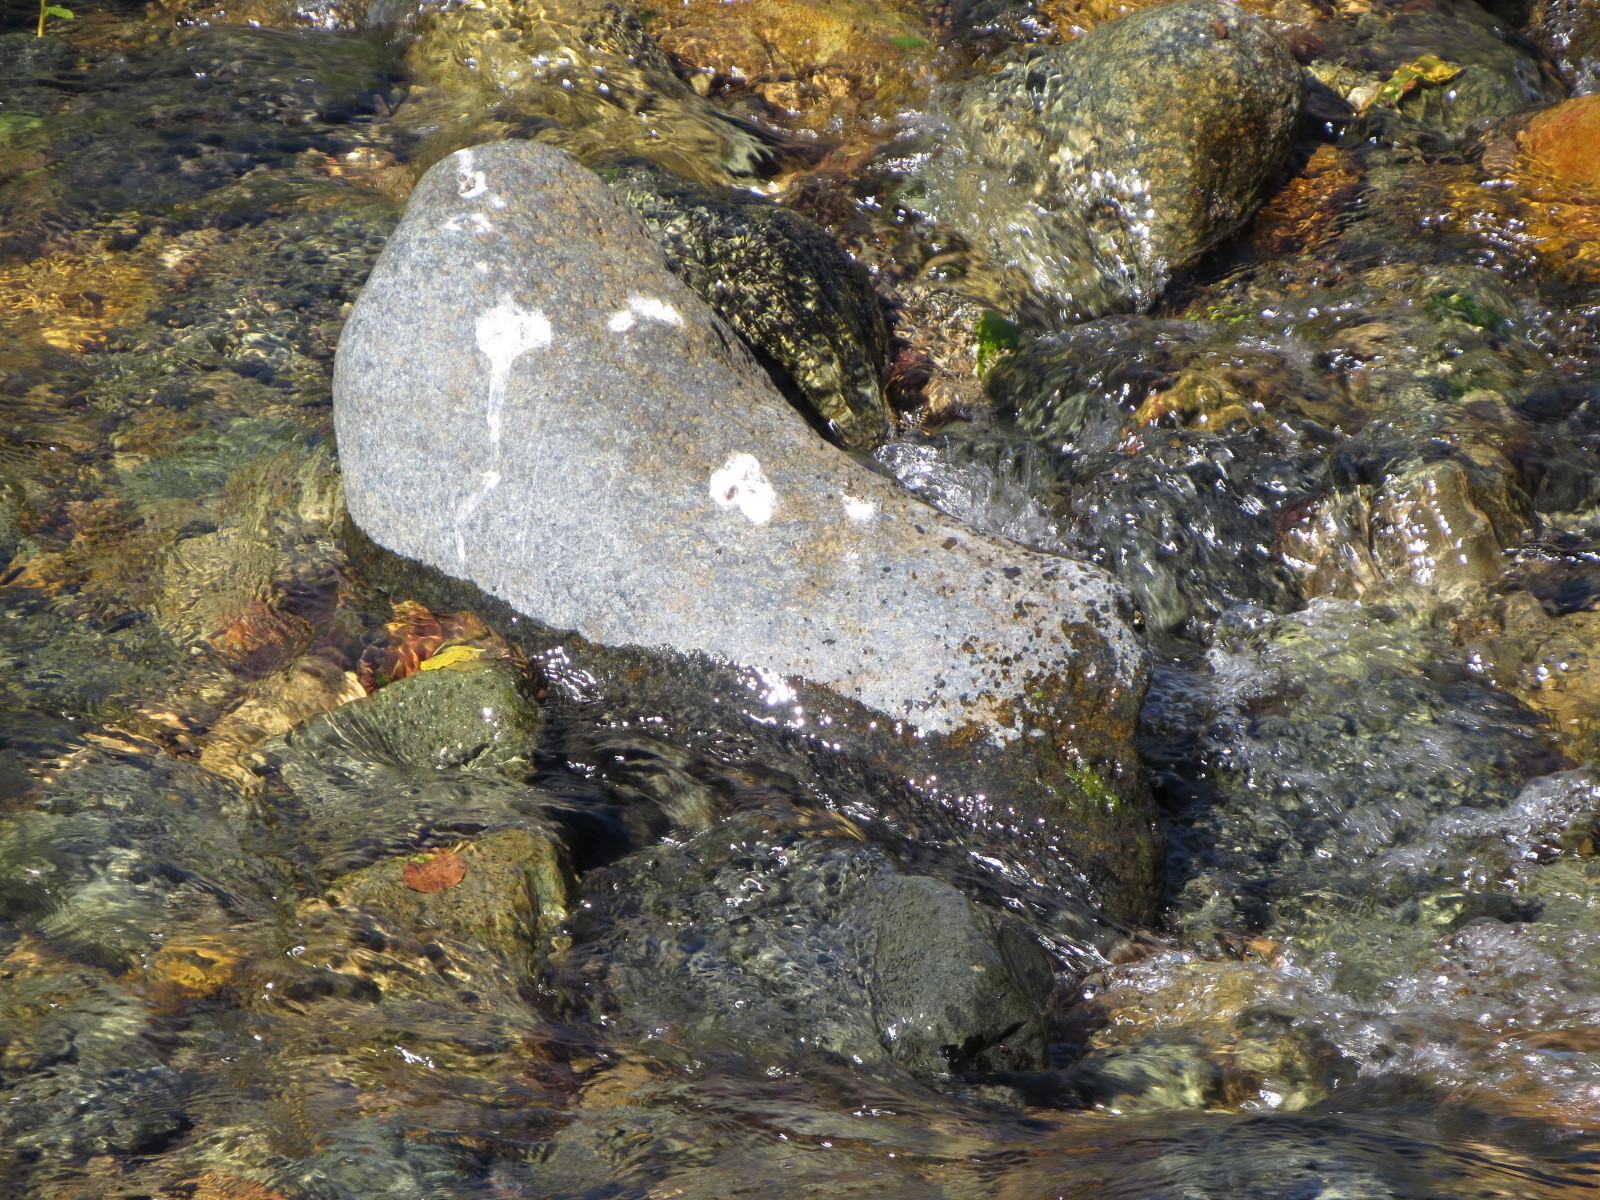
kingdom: Animalia
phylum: Chordata
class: Aves
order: Passeriformes
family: Cinclidae
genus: Cinclus
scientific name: Cinclus mexicanus
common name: American dipper
